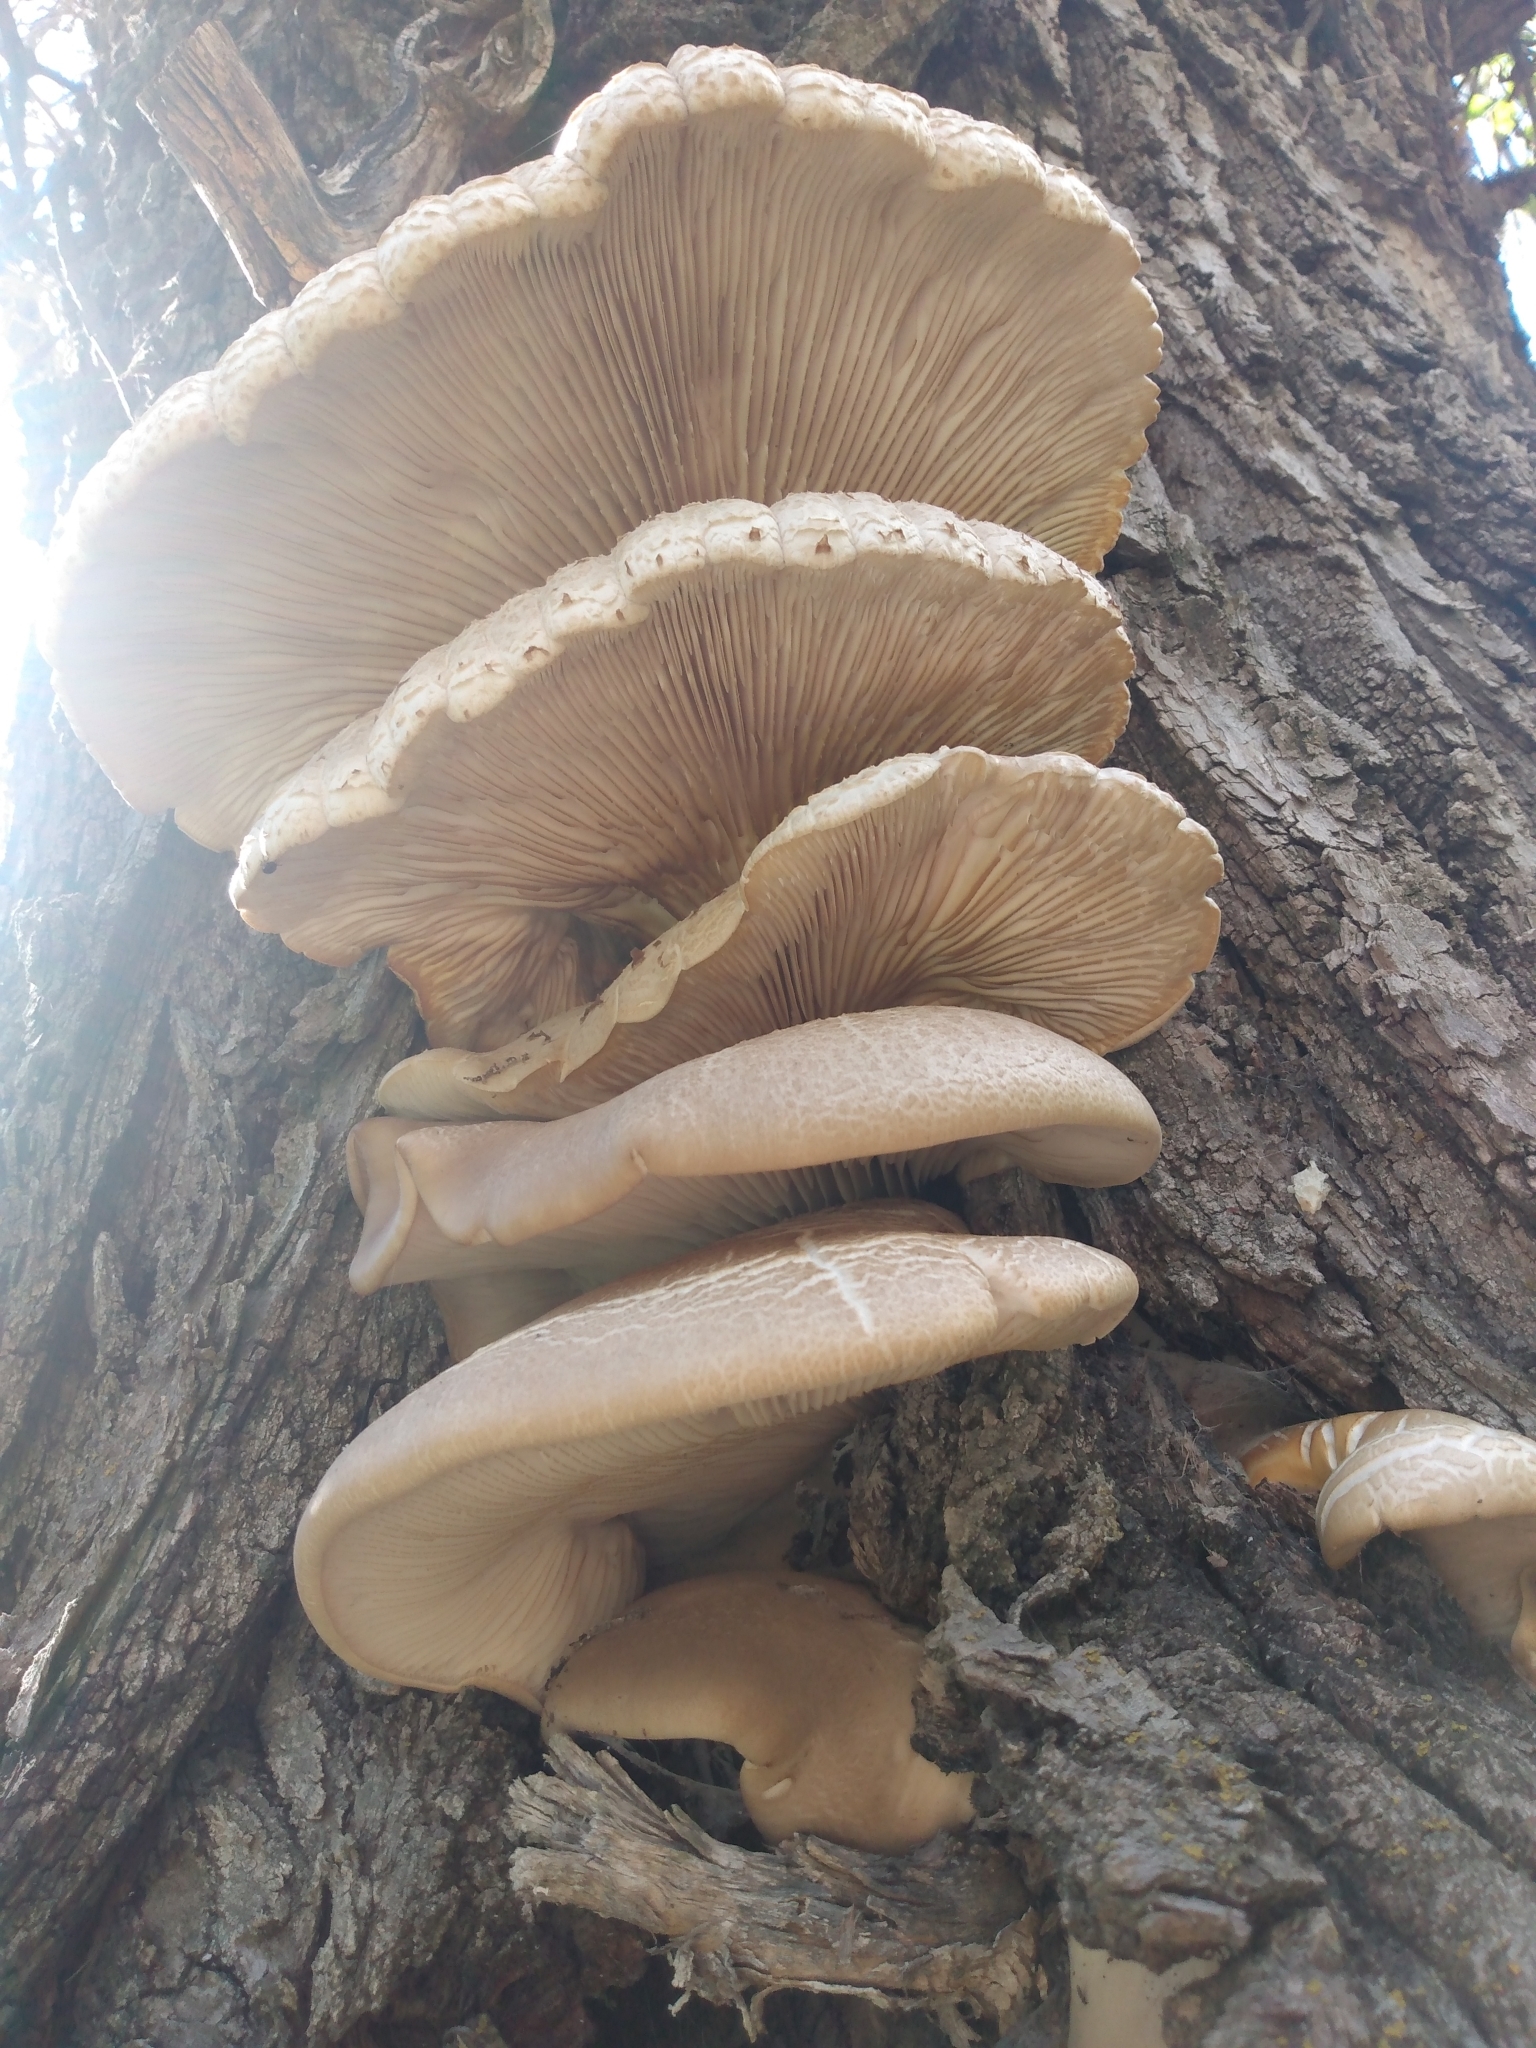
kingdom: Fungi
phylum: Basidiomycota
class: Agaricomycetes
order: Agaricales
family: Pleurotaceae
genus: Pleurotus
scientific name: Pleurotus ostreatus
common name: Oyster mushroom
